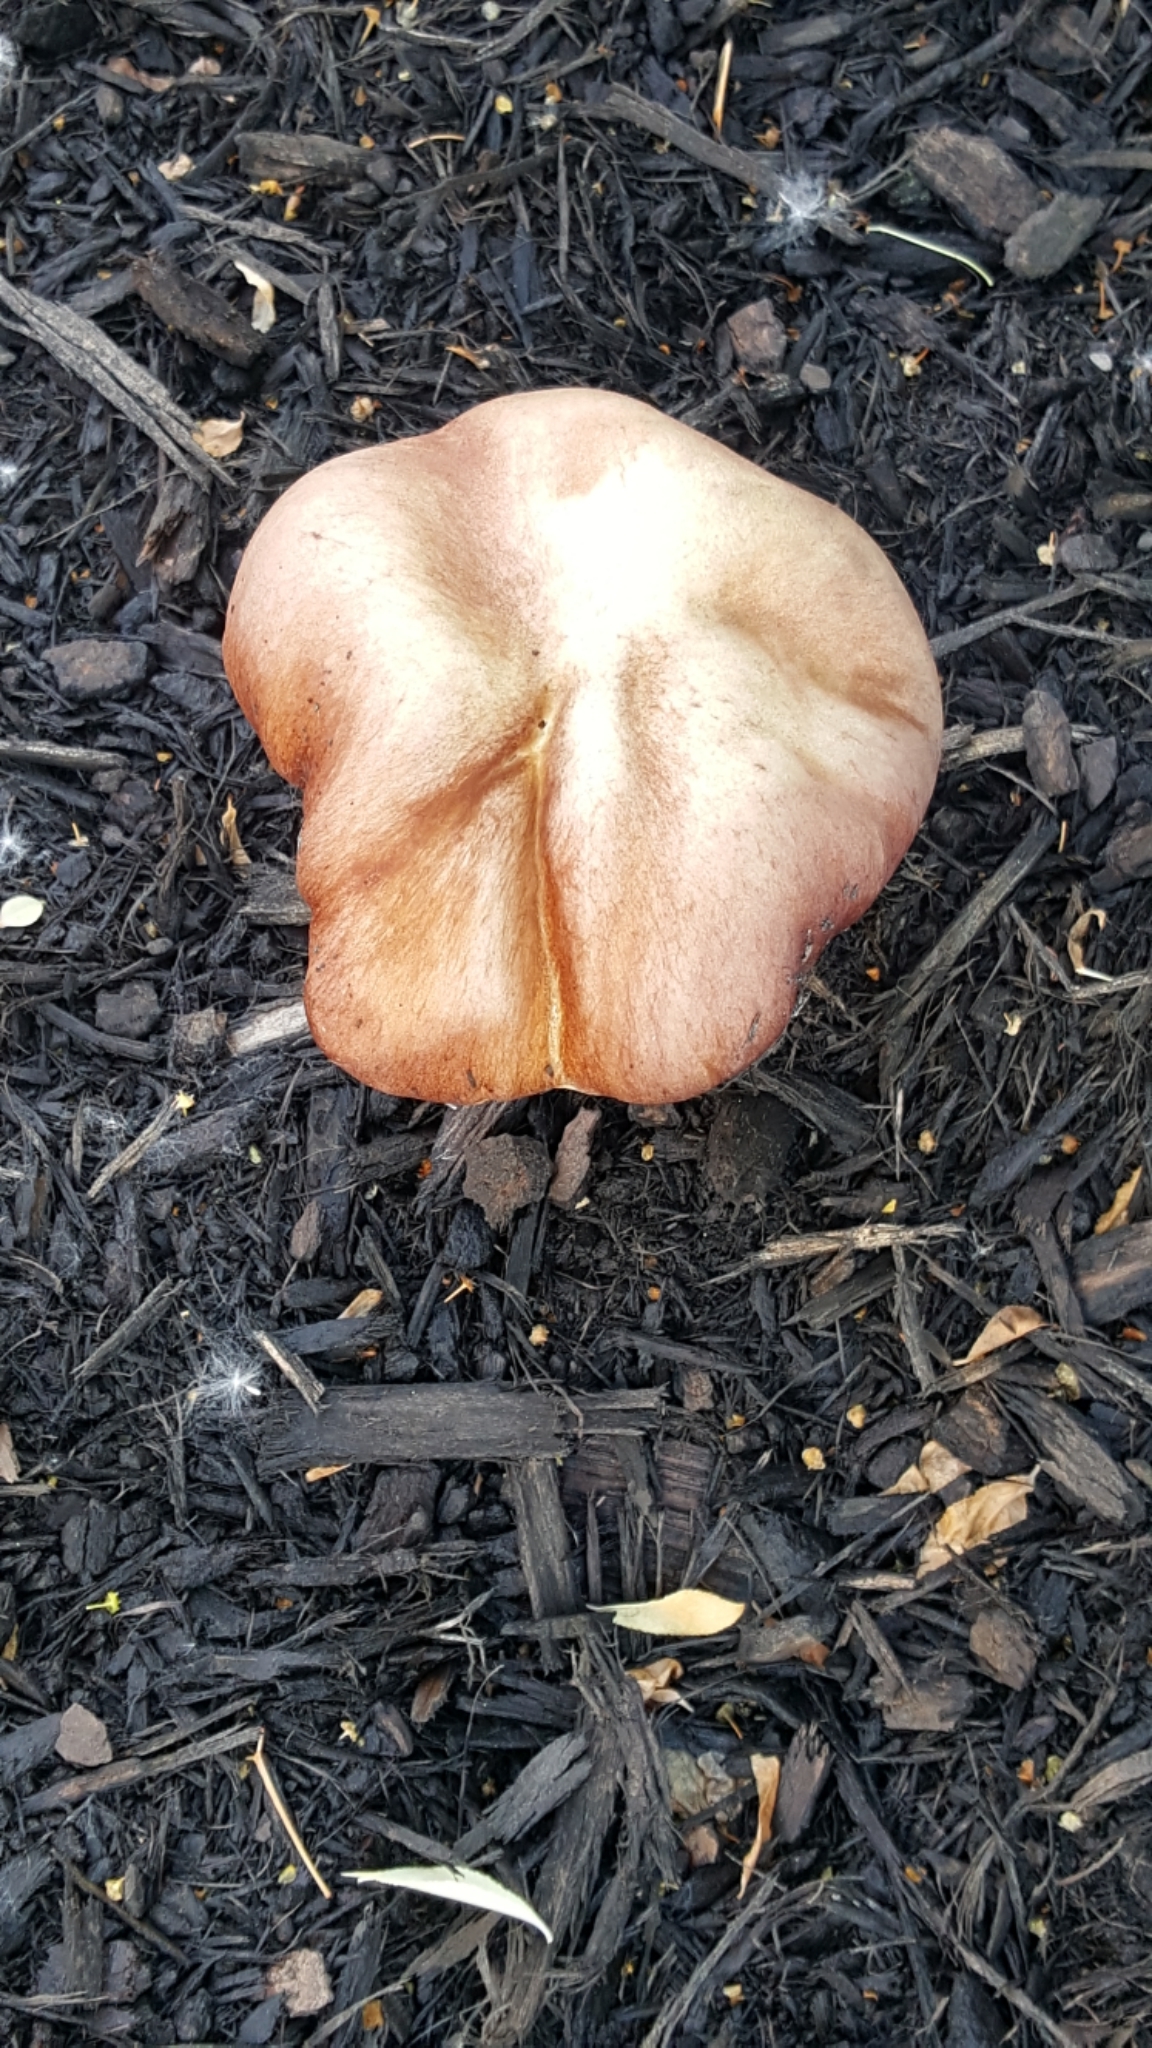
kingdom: Fungi
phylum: Basidiomycota
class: Agaricomycetes
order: Agaricales
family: Strophariaceae
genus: Stropharia
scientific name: Stropharia rugosoannulata
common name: Wine roundhead
